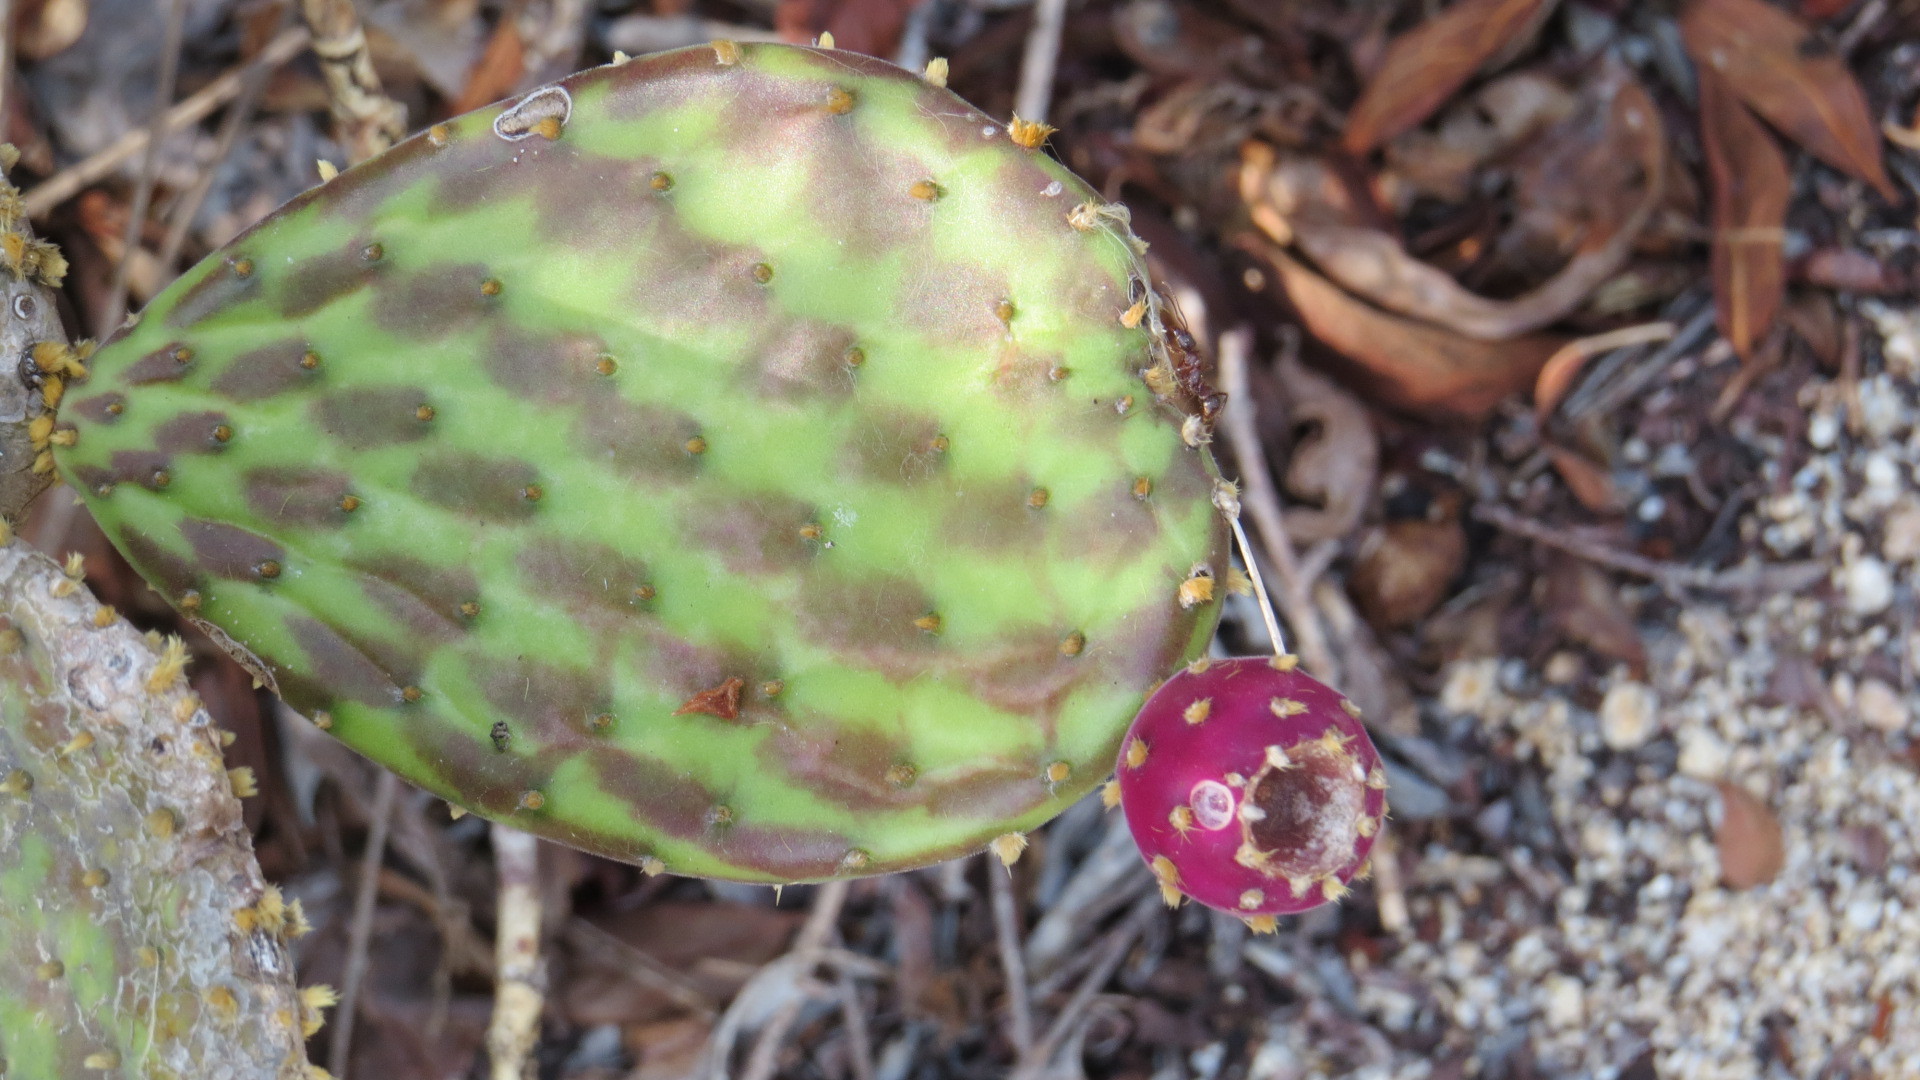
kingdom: Plantae
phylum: Tracheophyta
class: Magnoliopsida
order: Caryophyllales
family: Cactaceae
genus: Opuntia
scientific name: Opuntia decumbens
